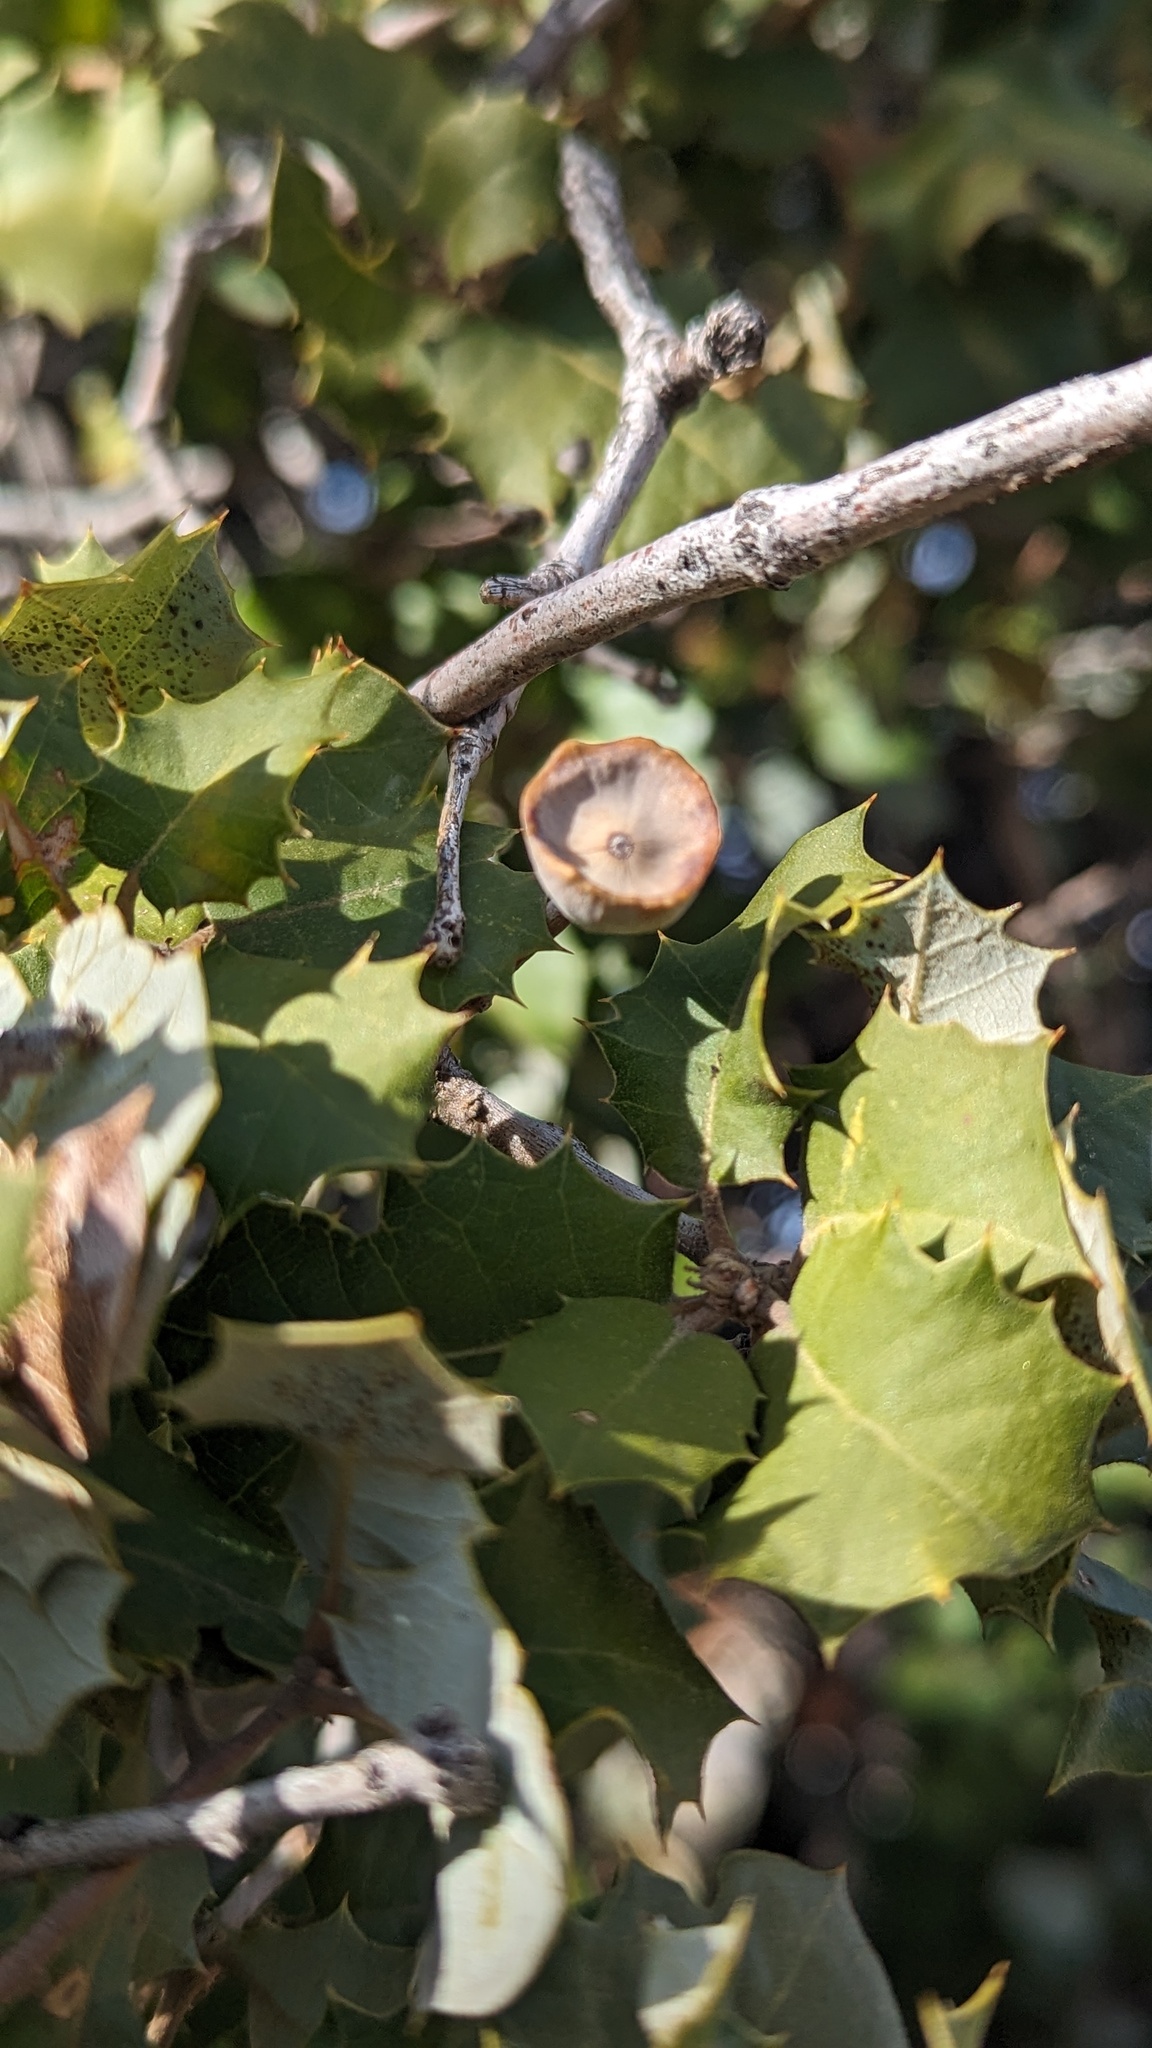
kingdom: Animalia
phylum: Arthropoda
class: Insecta
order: Hymenoptera
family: Cynipidae
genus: Heteroecus
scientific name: Heteroecus
